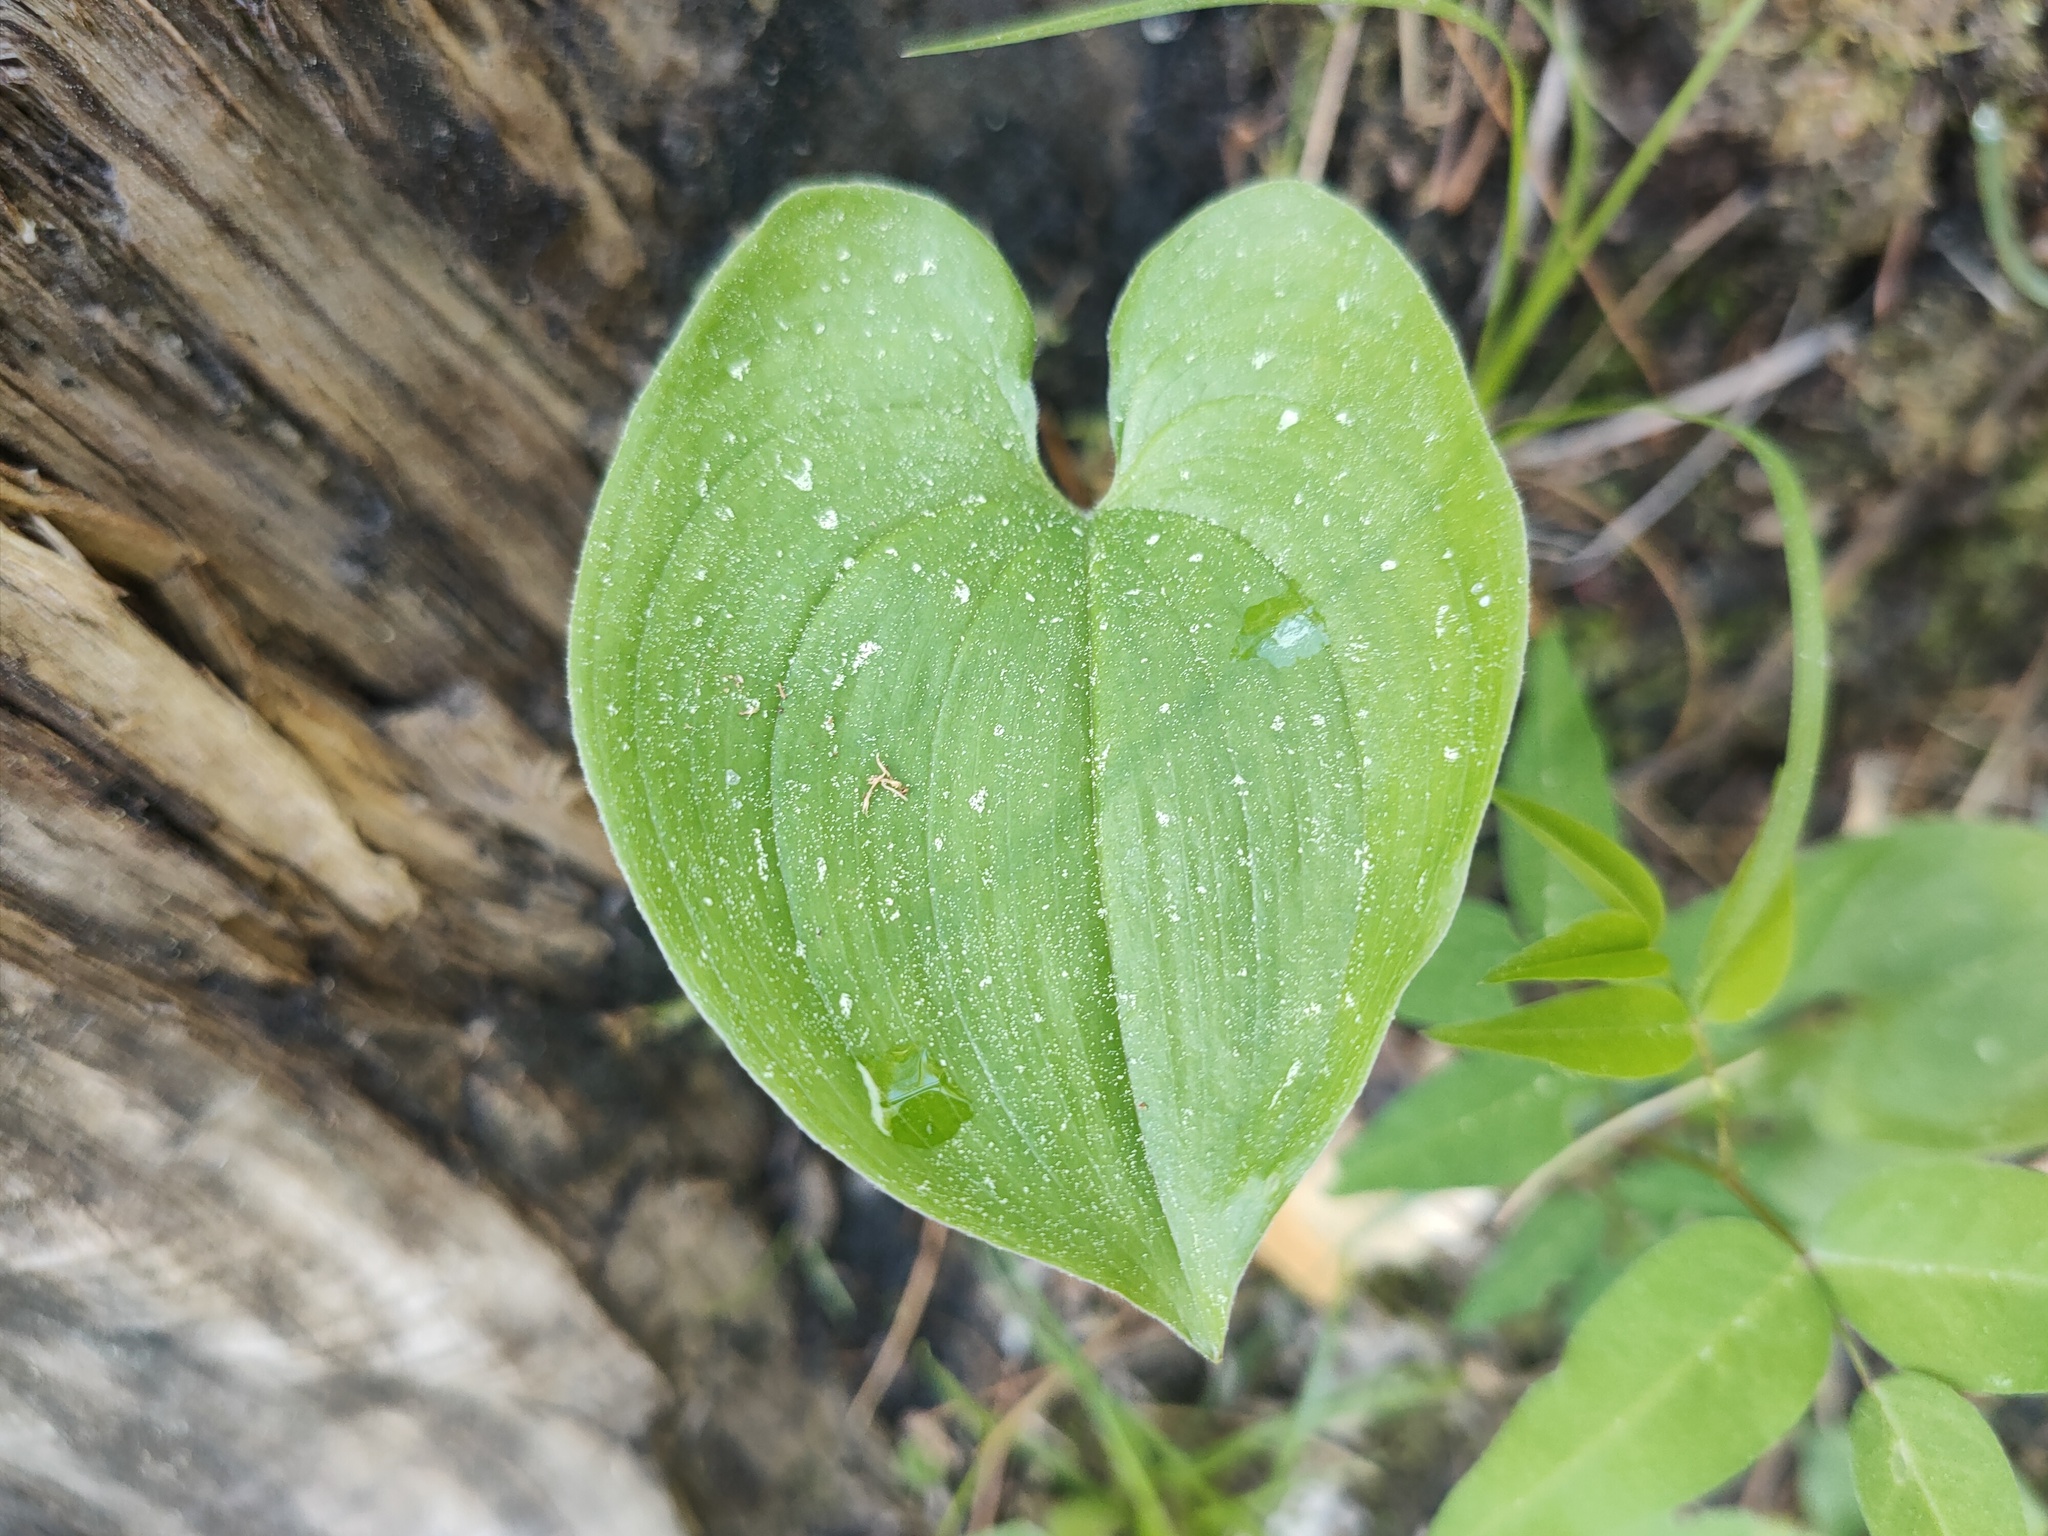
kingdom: Plantae
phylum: Tracheophyta
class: Liliopsida
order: Asparagales
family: Asparagaceae
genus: Maianthemum
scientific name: Maianthemum bifolium
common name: May lily
